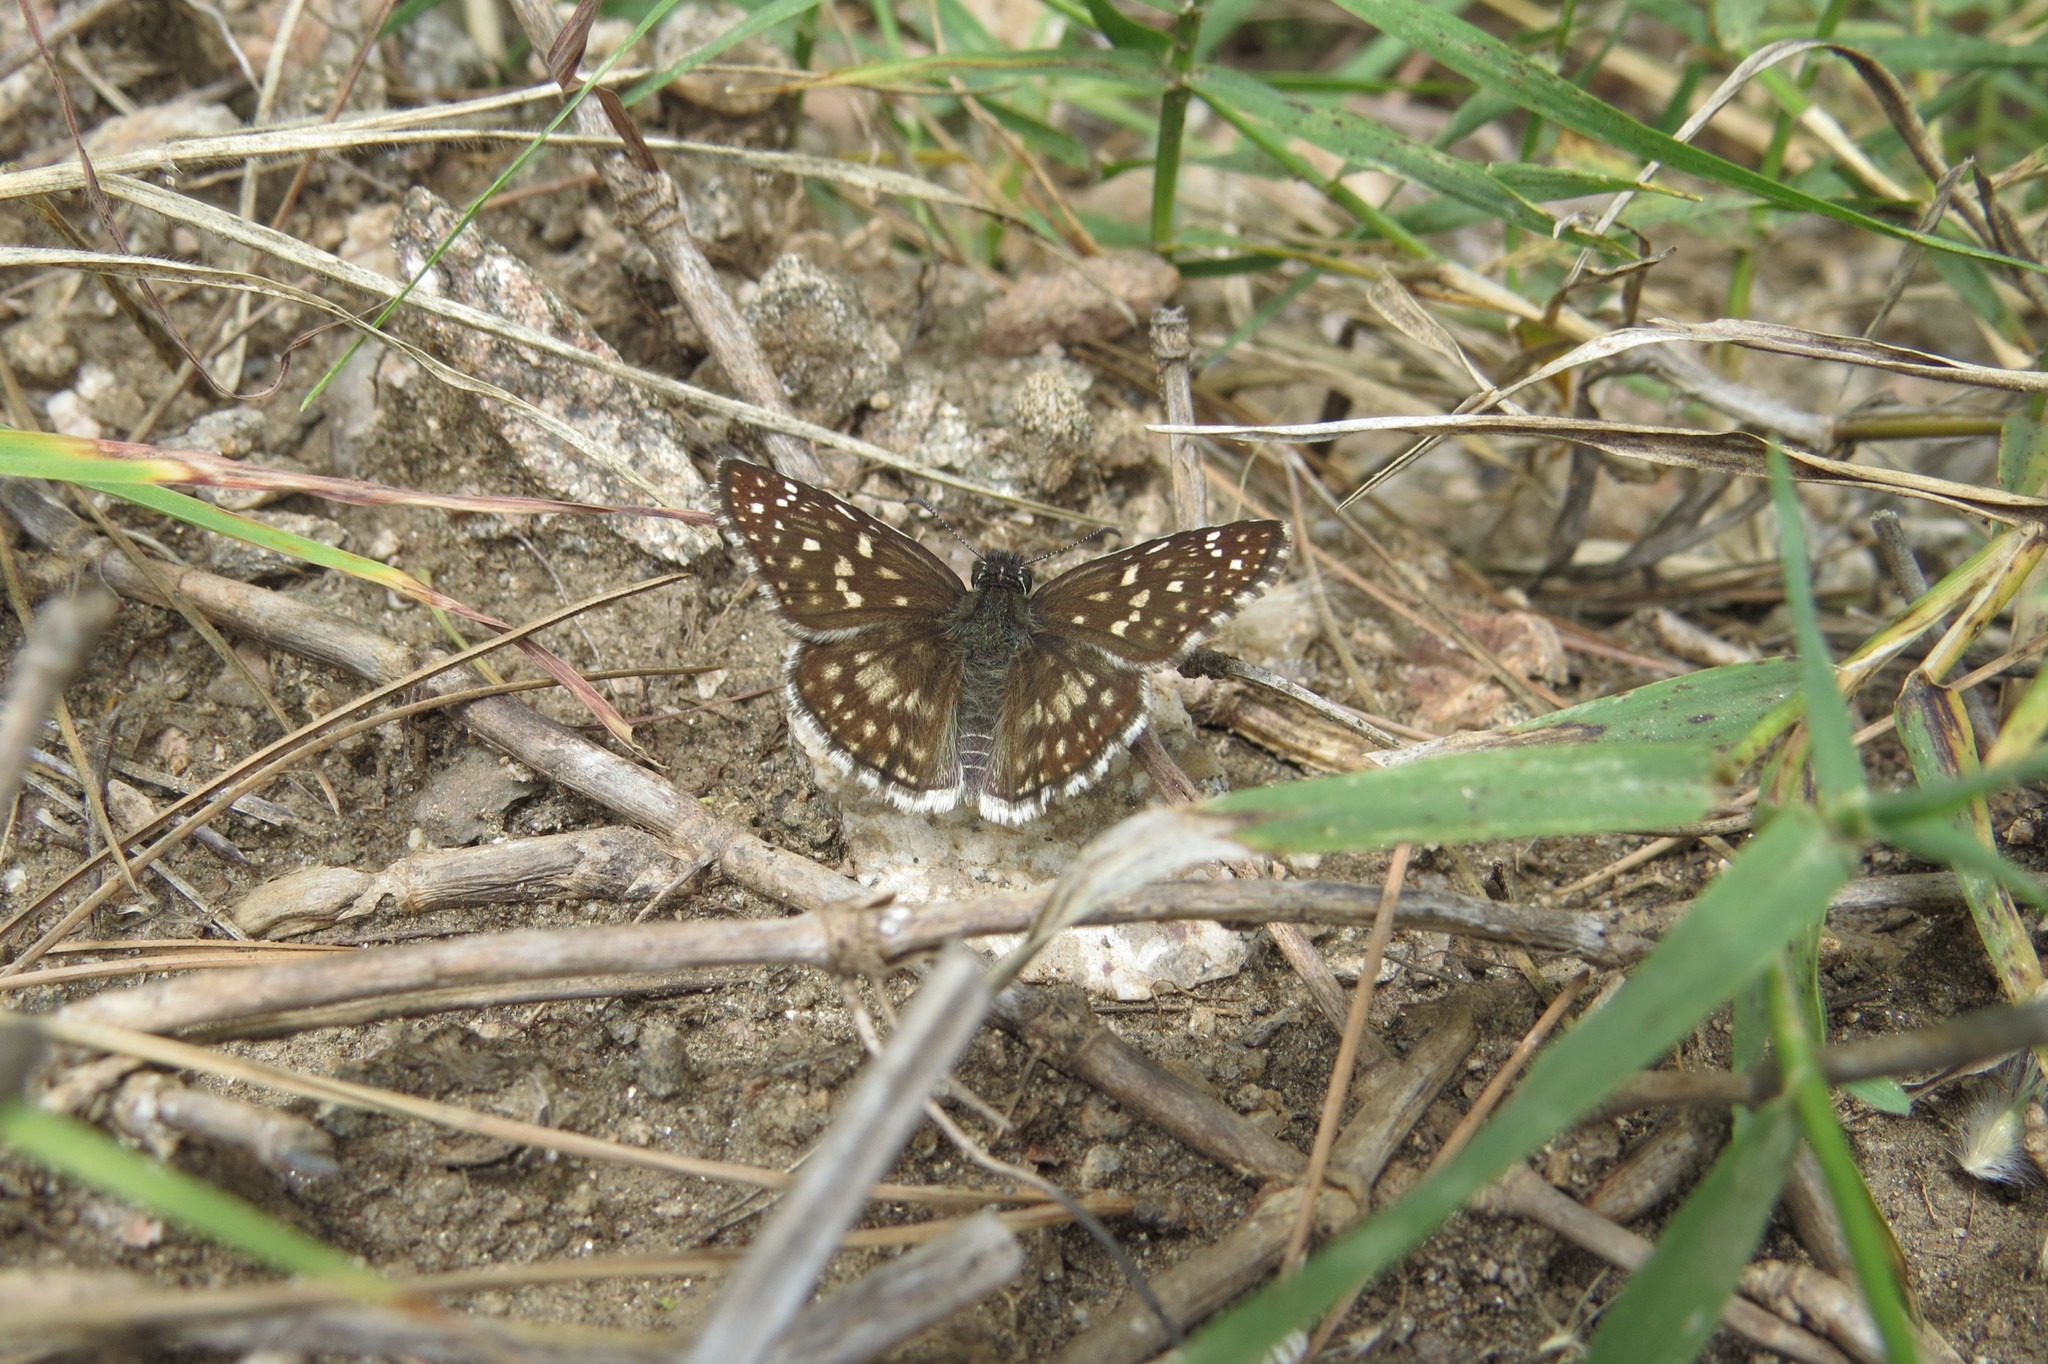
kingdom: Animalia
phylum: Arthropoda
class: Insecta
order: Lepidoptera
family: Hesperiidae
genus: Pyrgus
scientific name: Pyrgus oileus
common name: Tropical checkered-skipper
